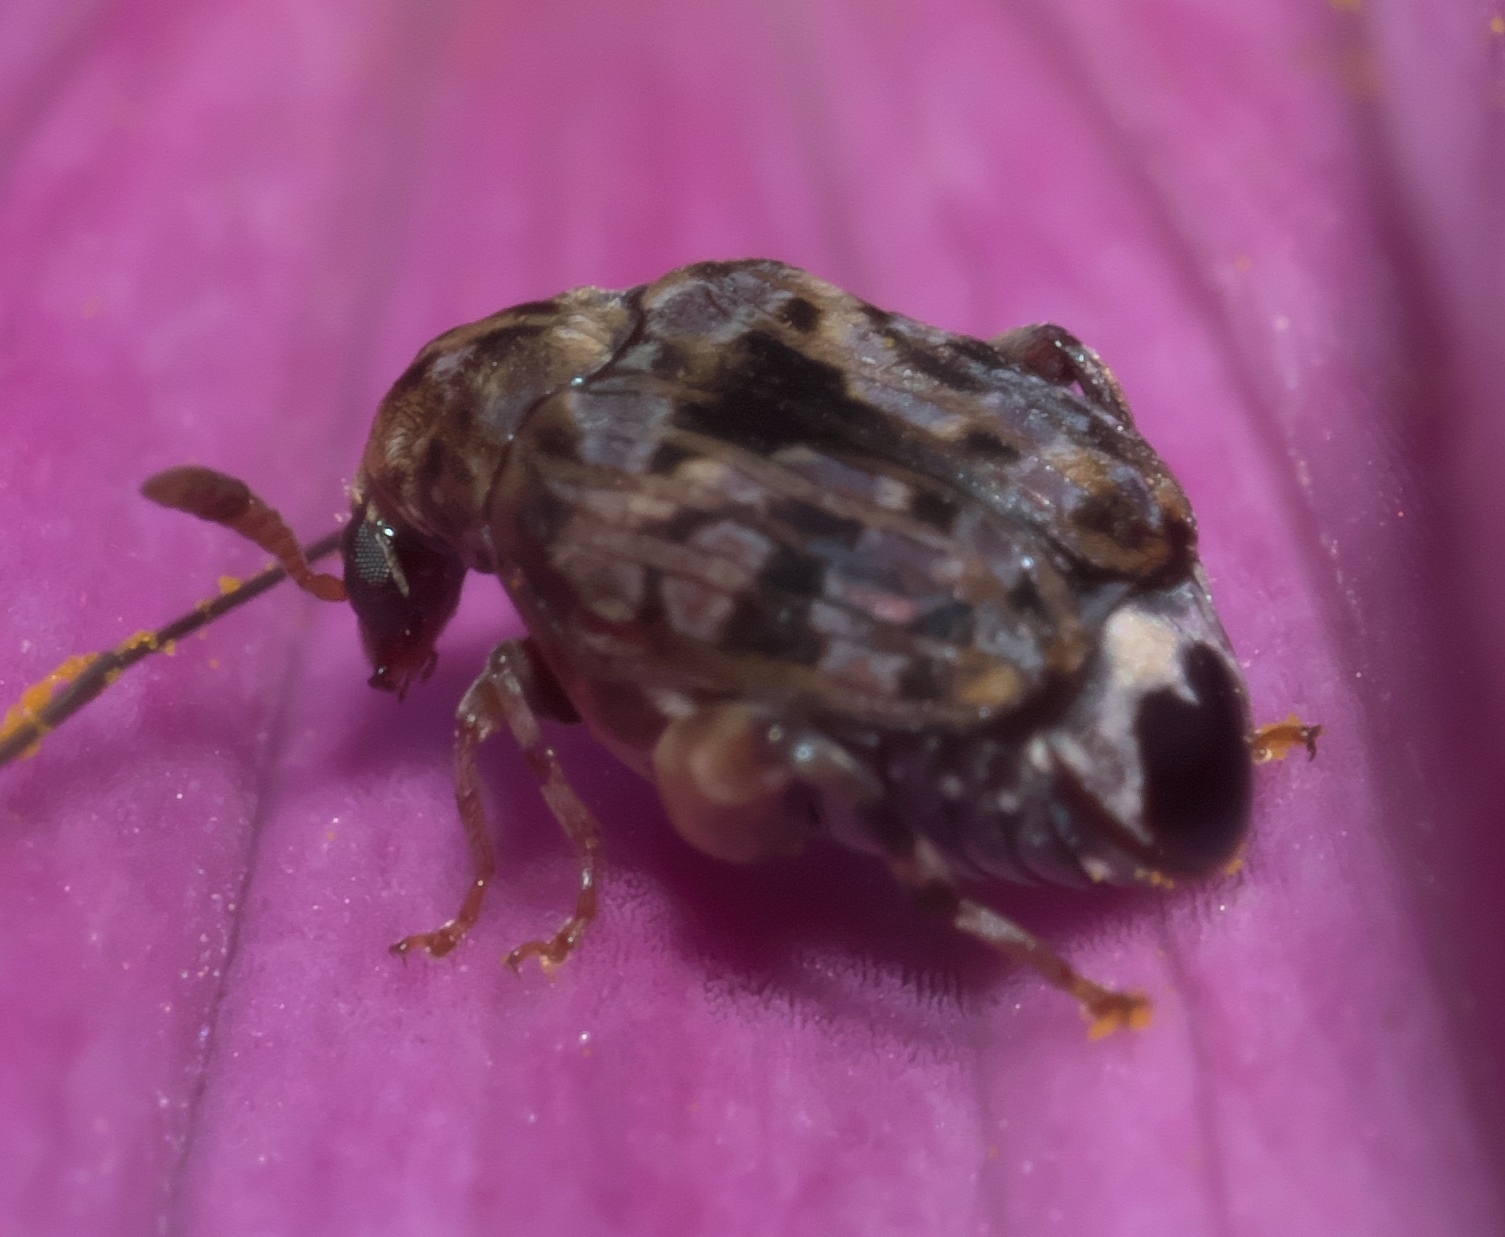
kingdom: Animalia
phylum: Arthropoda
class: Insecta
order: Coleoptera
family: Chrysomelidae
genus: Gibbobruchus
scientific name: Gibbobruchus mimus
